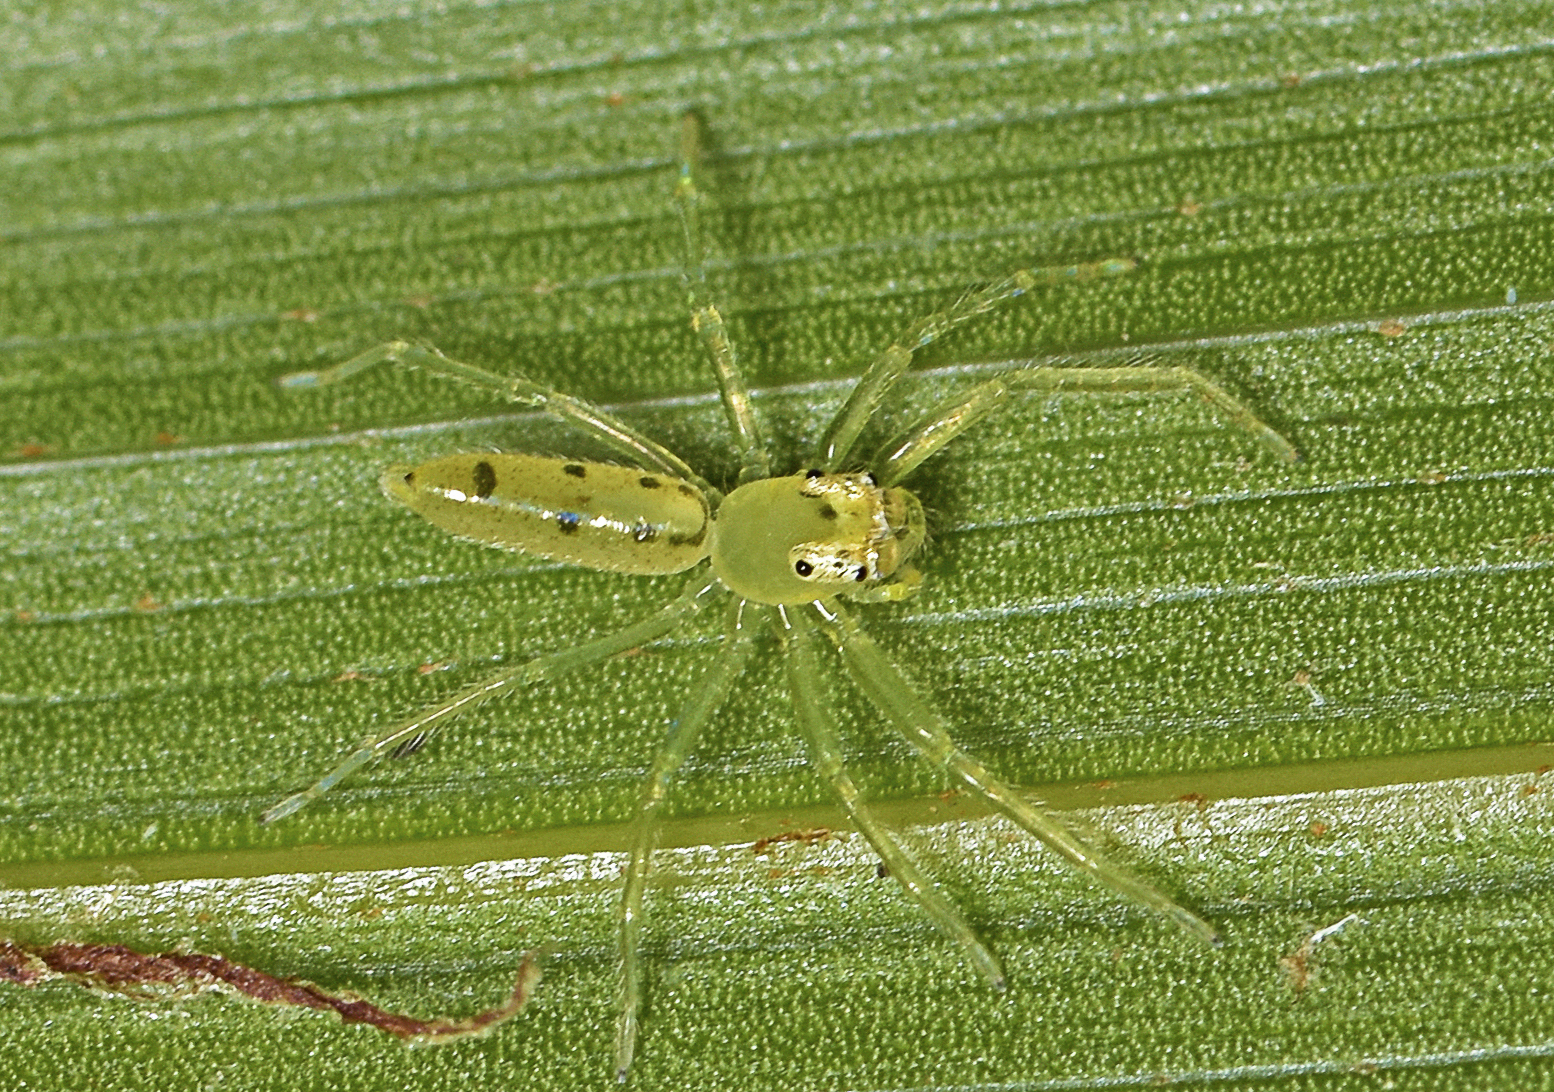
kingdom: Animalia
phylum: Arthropoda
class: Arachnida
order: Araneae
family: Salticidae
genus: Astilodes
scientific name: Astilodes mariae
